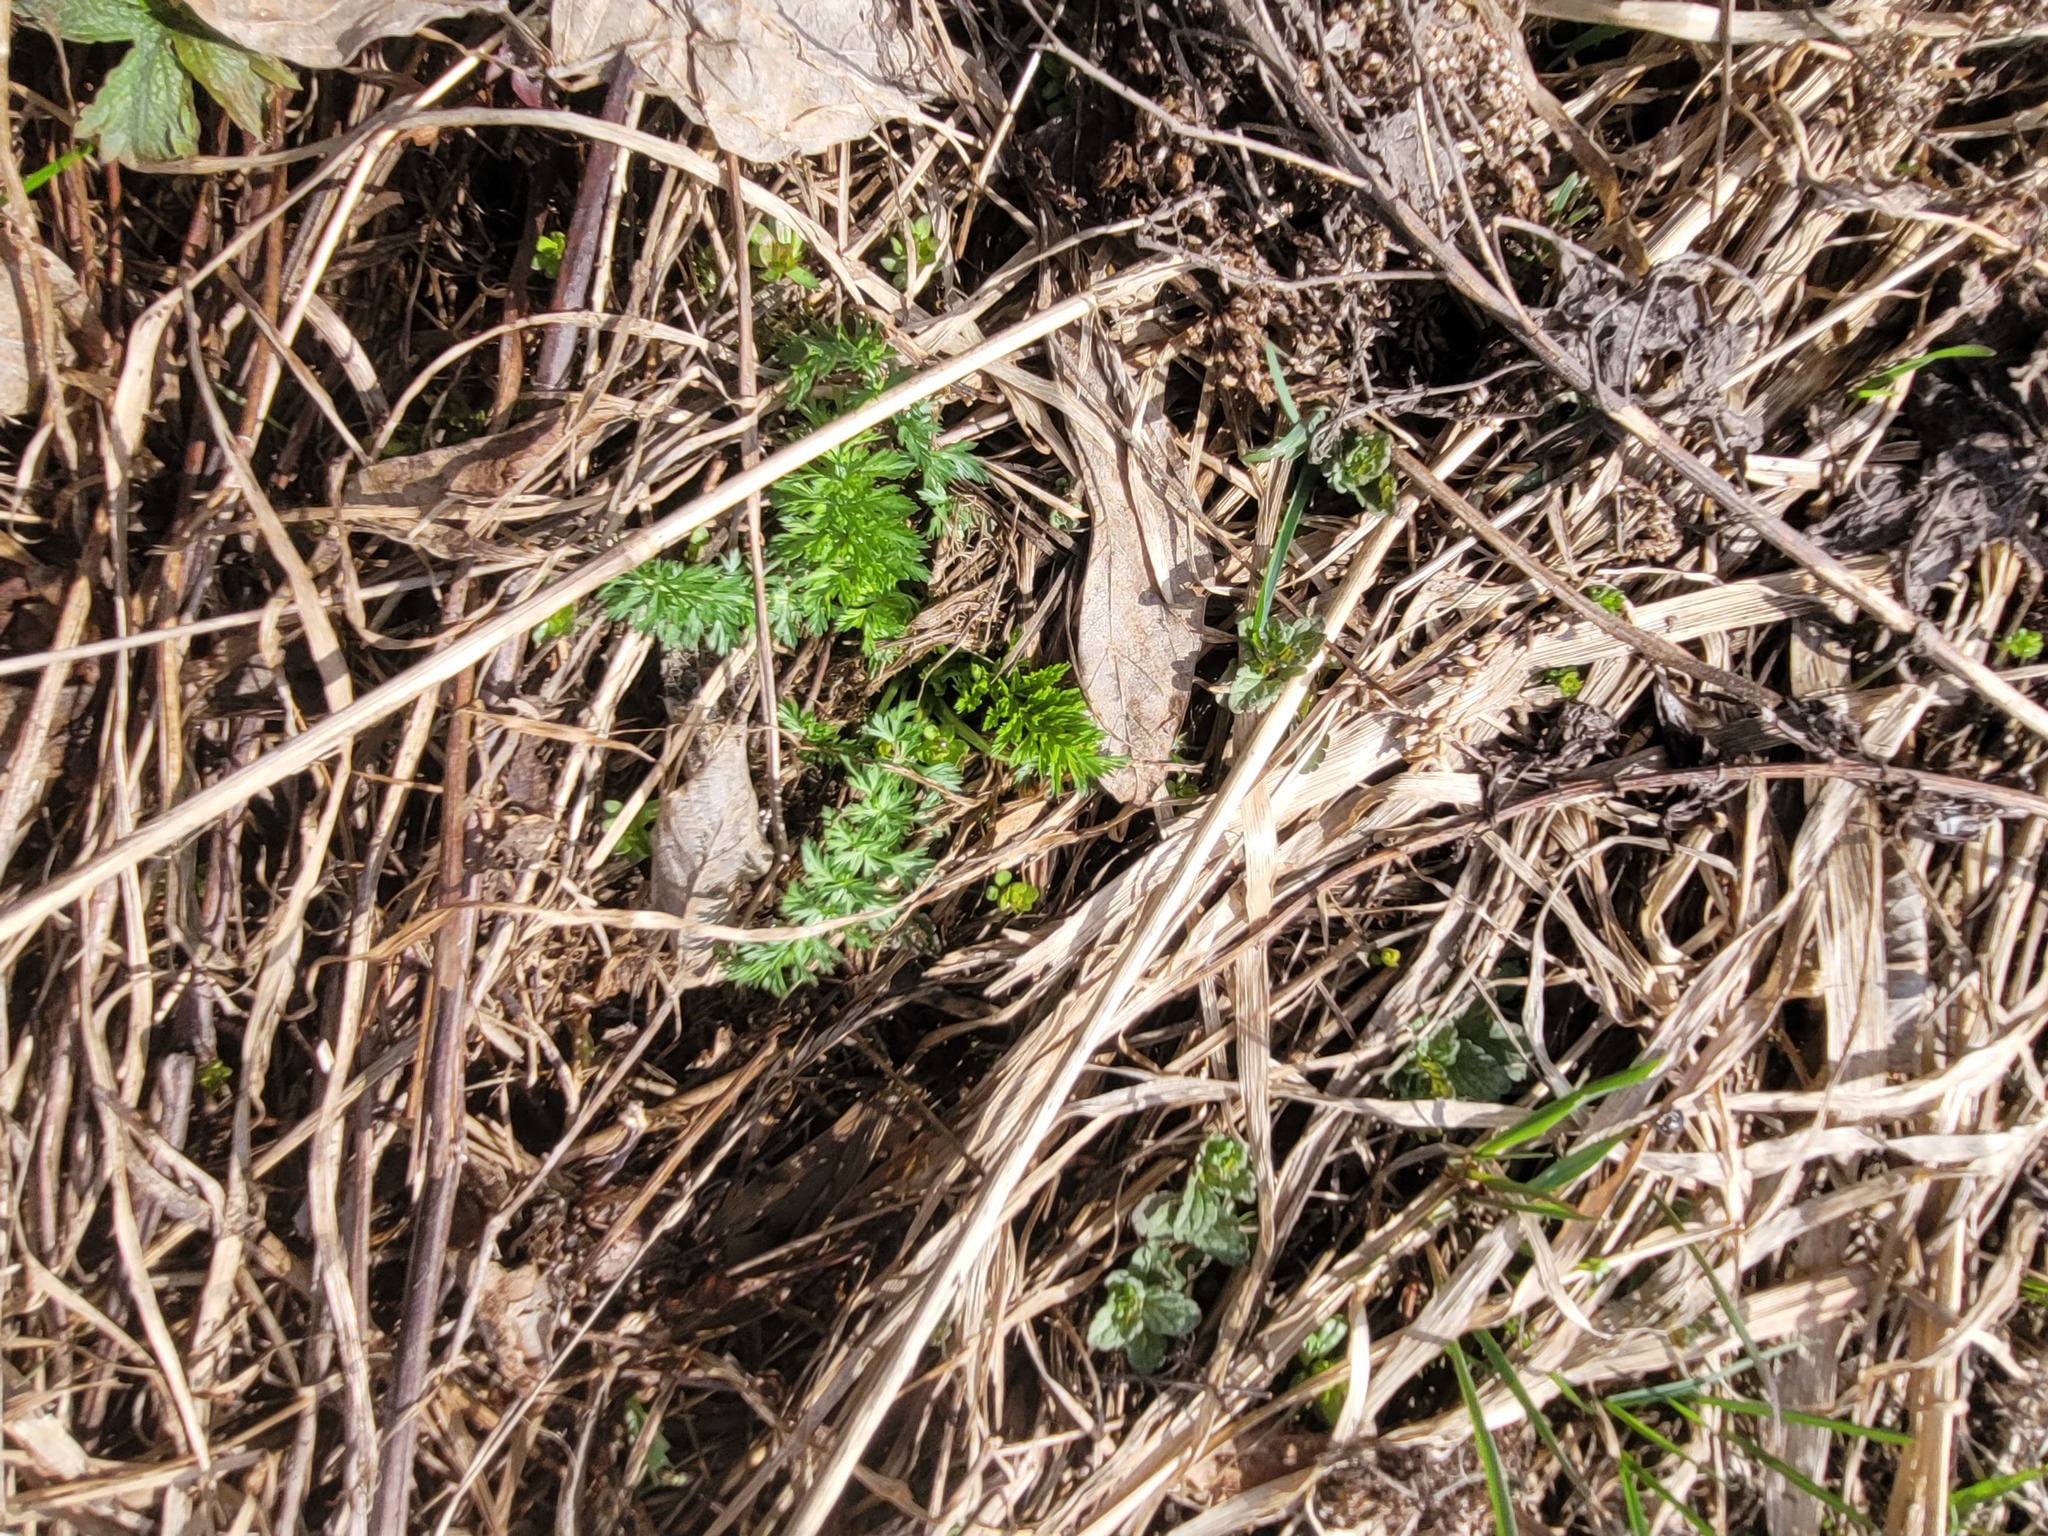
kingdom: Plantae
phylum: Tracheophyta
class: Magnoliopsida
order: Apiales
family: Apiaceae
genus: Carum
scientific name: Carum carvi
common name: Caraway
